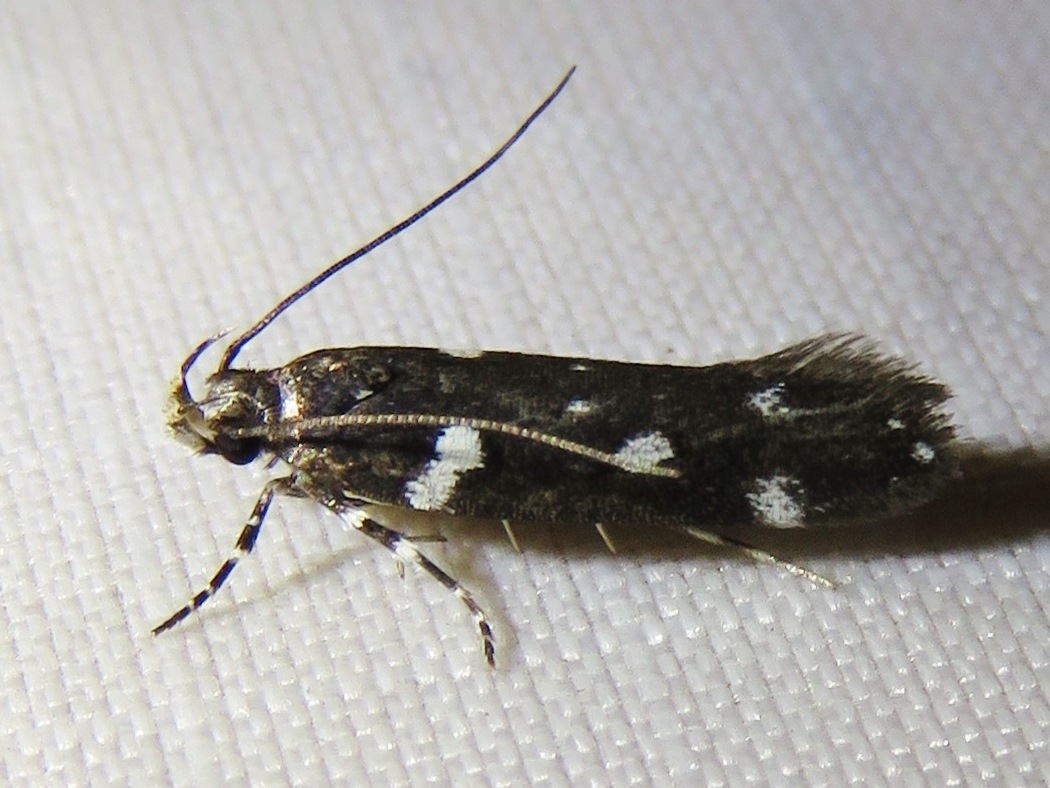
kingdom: Animalia
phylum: Arthropoda
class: Insecta
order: Lepidoptera
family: Gelechiidae
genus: Aroga
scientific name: Aroga compositella
